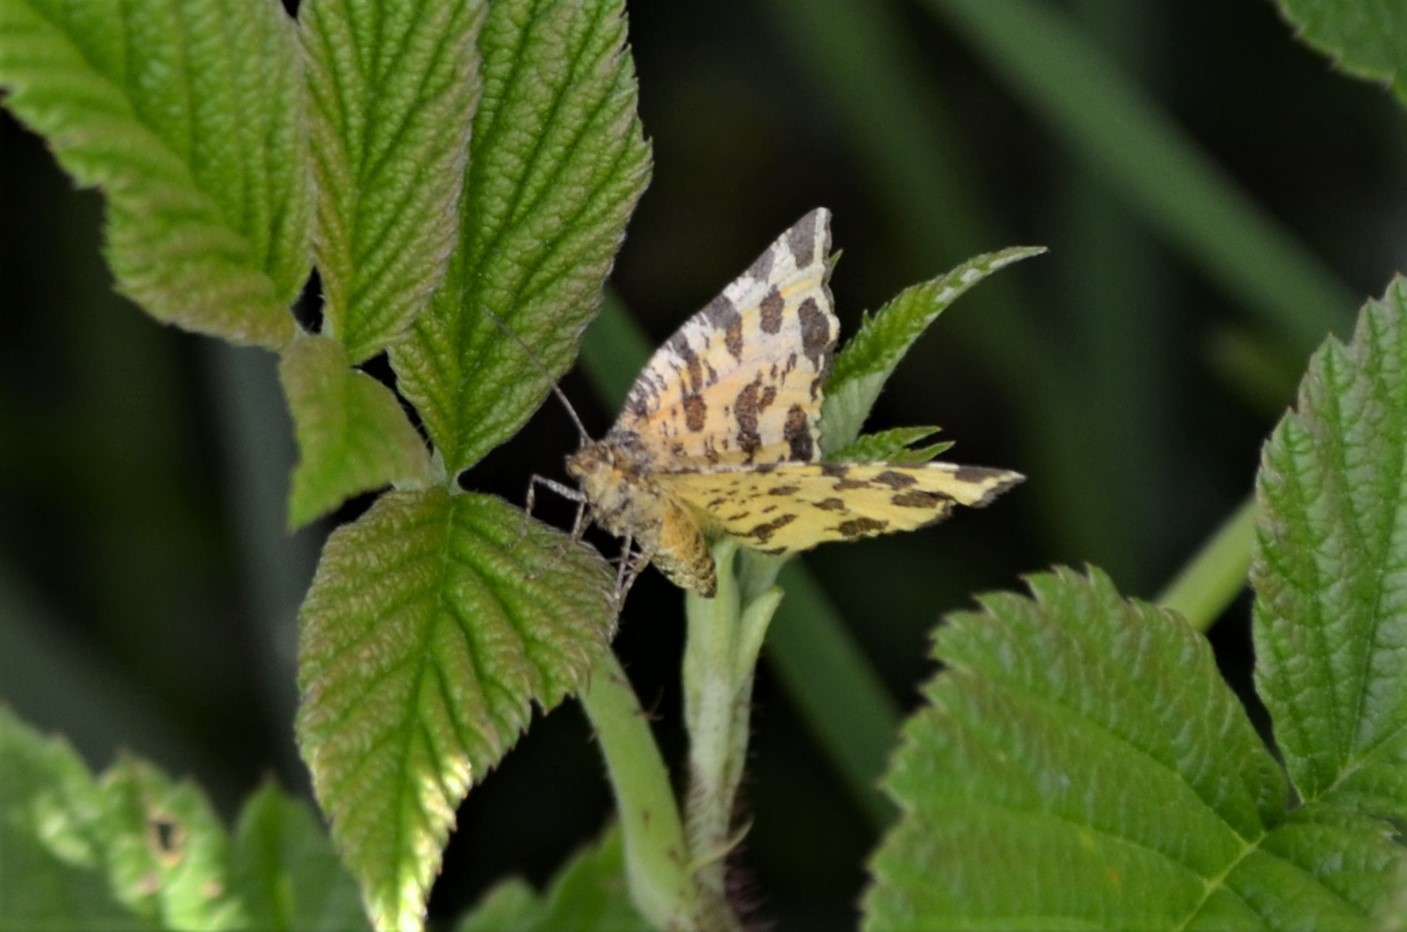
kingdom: Animalia
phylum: Arthropoda
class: Insecta
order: Lepidoptera
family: Geometridae
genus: Pseudopanthera
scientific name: Pseudopanthera macularia
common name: Speckled yellow
